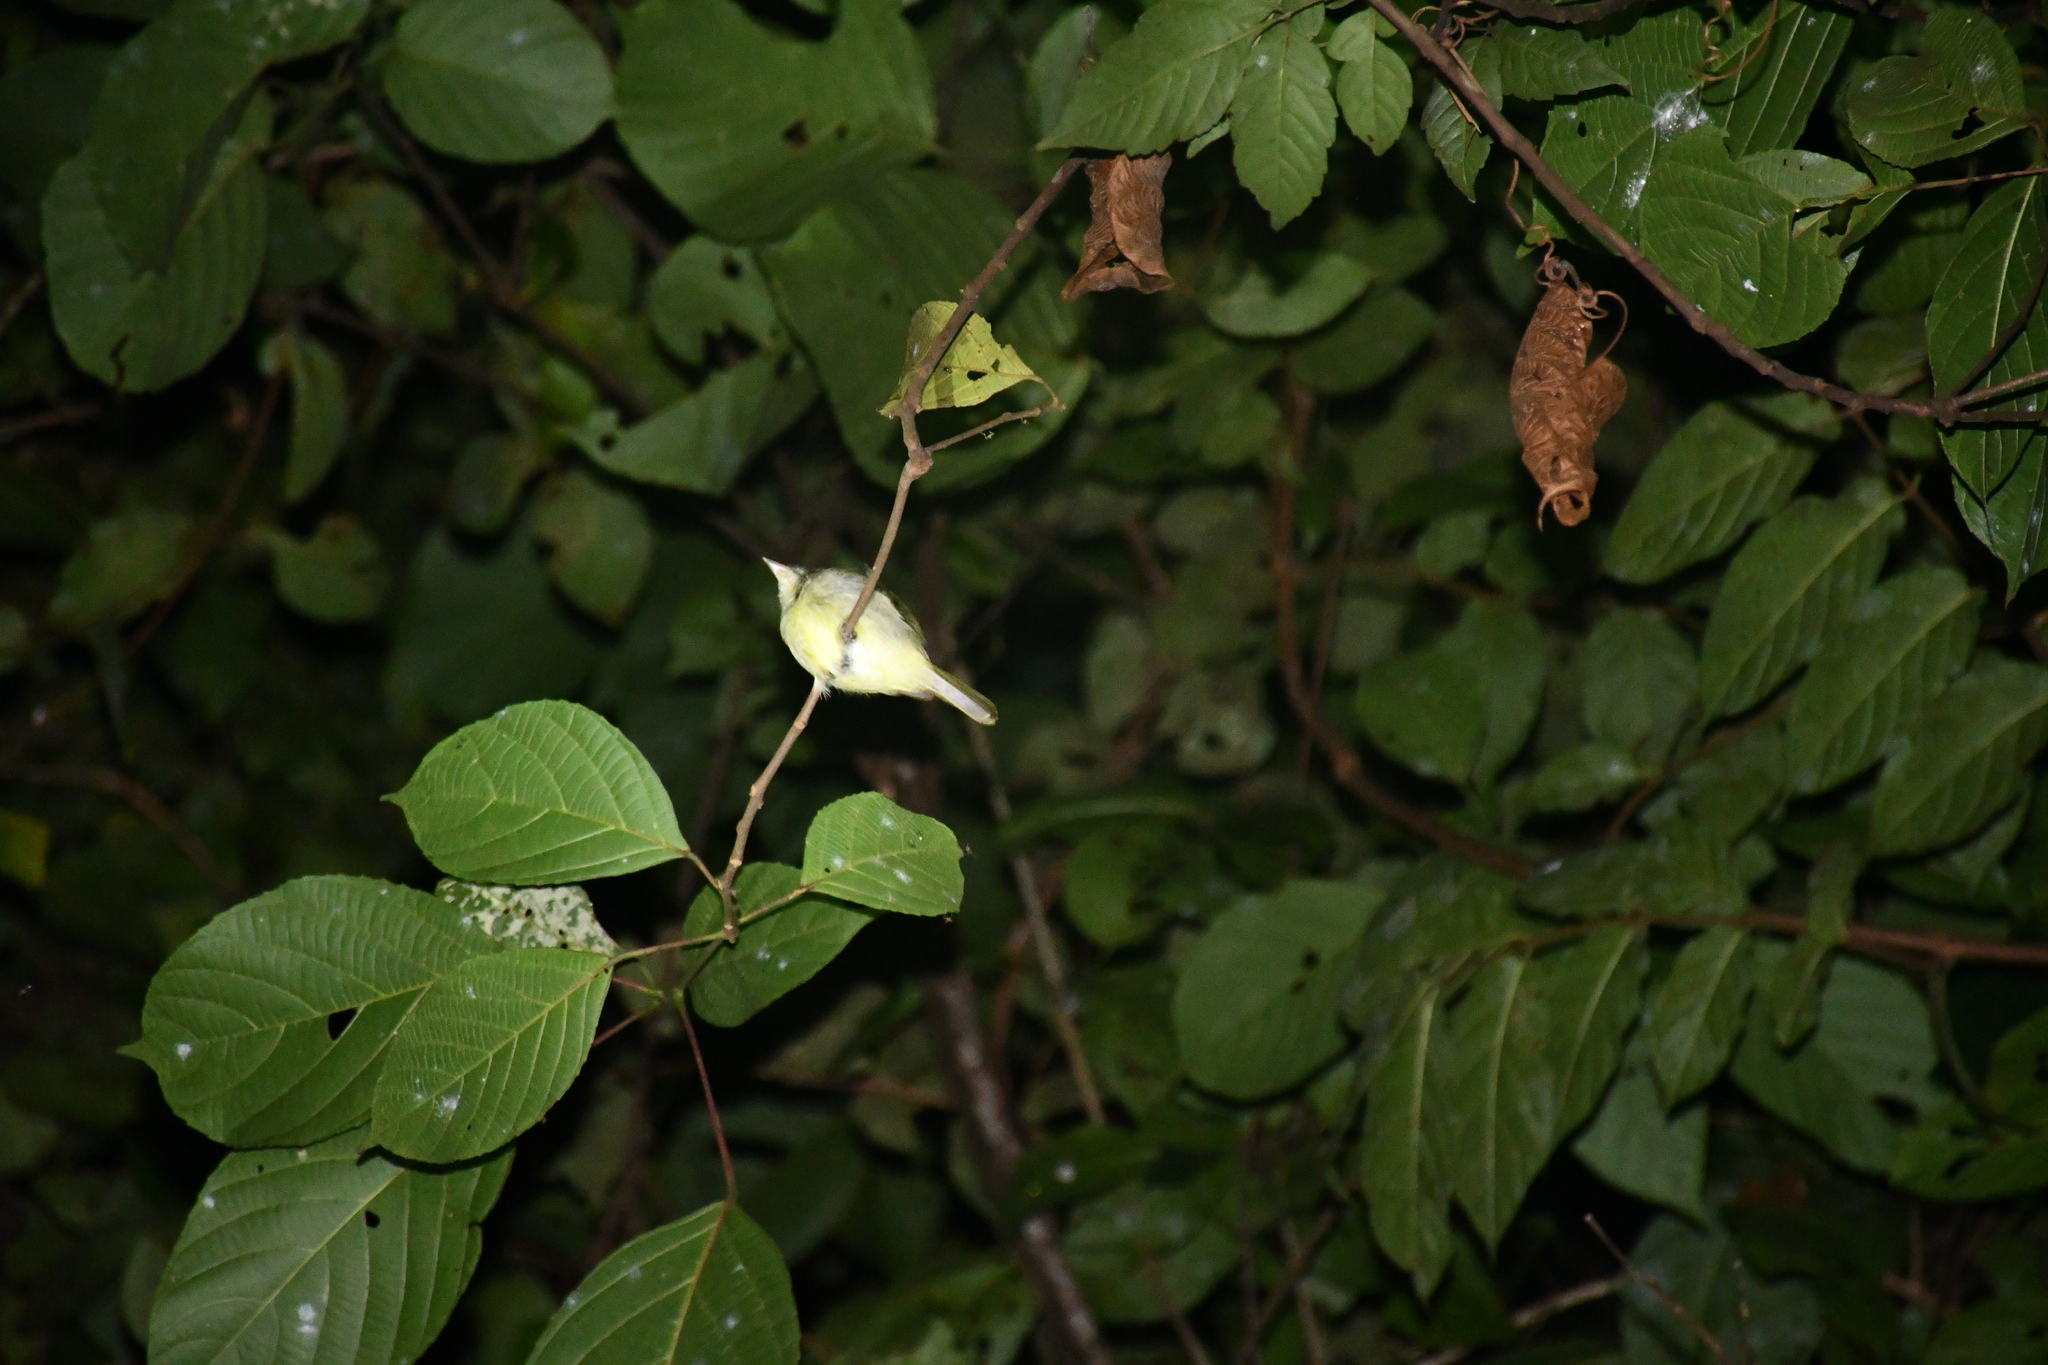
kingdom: Animalia
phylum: Chordata
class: Aves
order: Passeriformes
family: Pipridae
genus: Neopelma
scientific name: Neopelma sulphureiventer
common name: Sulphur-bellied tyrant-manakin
